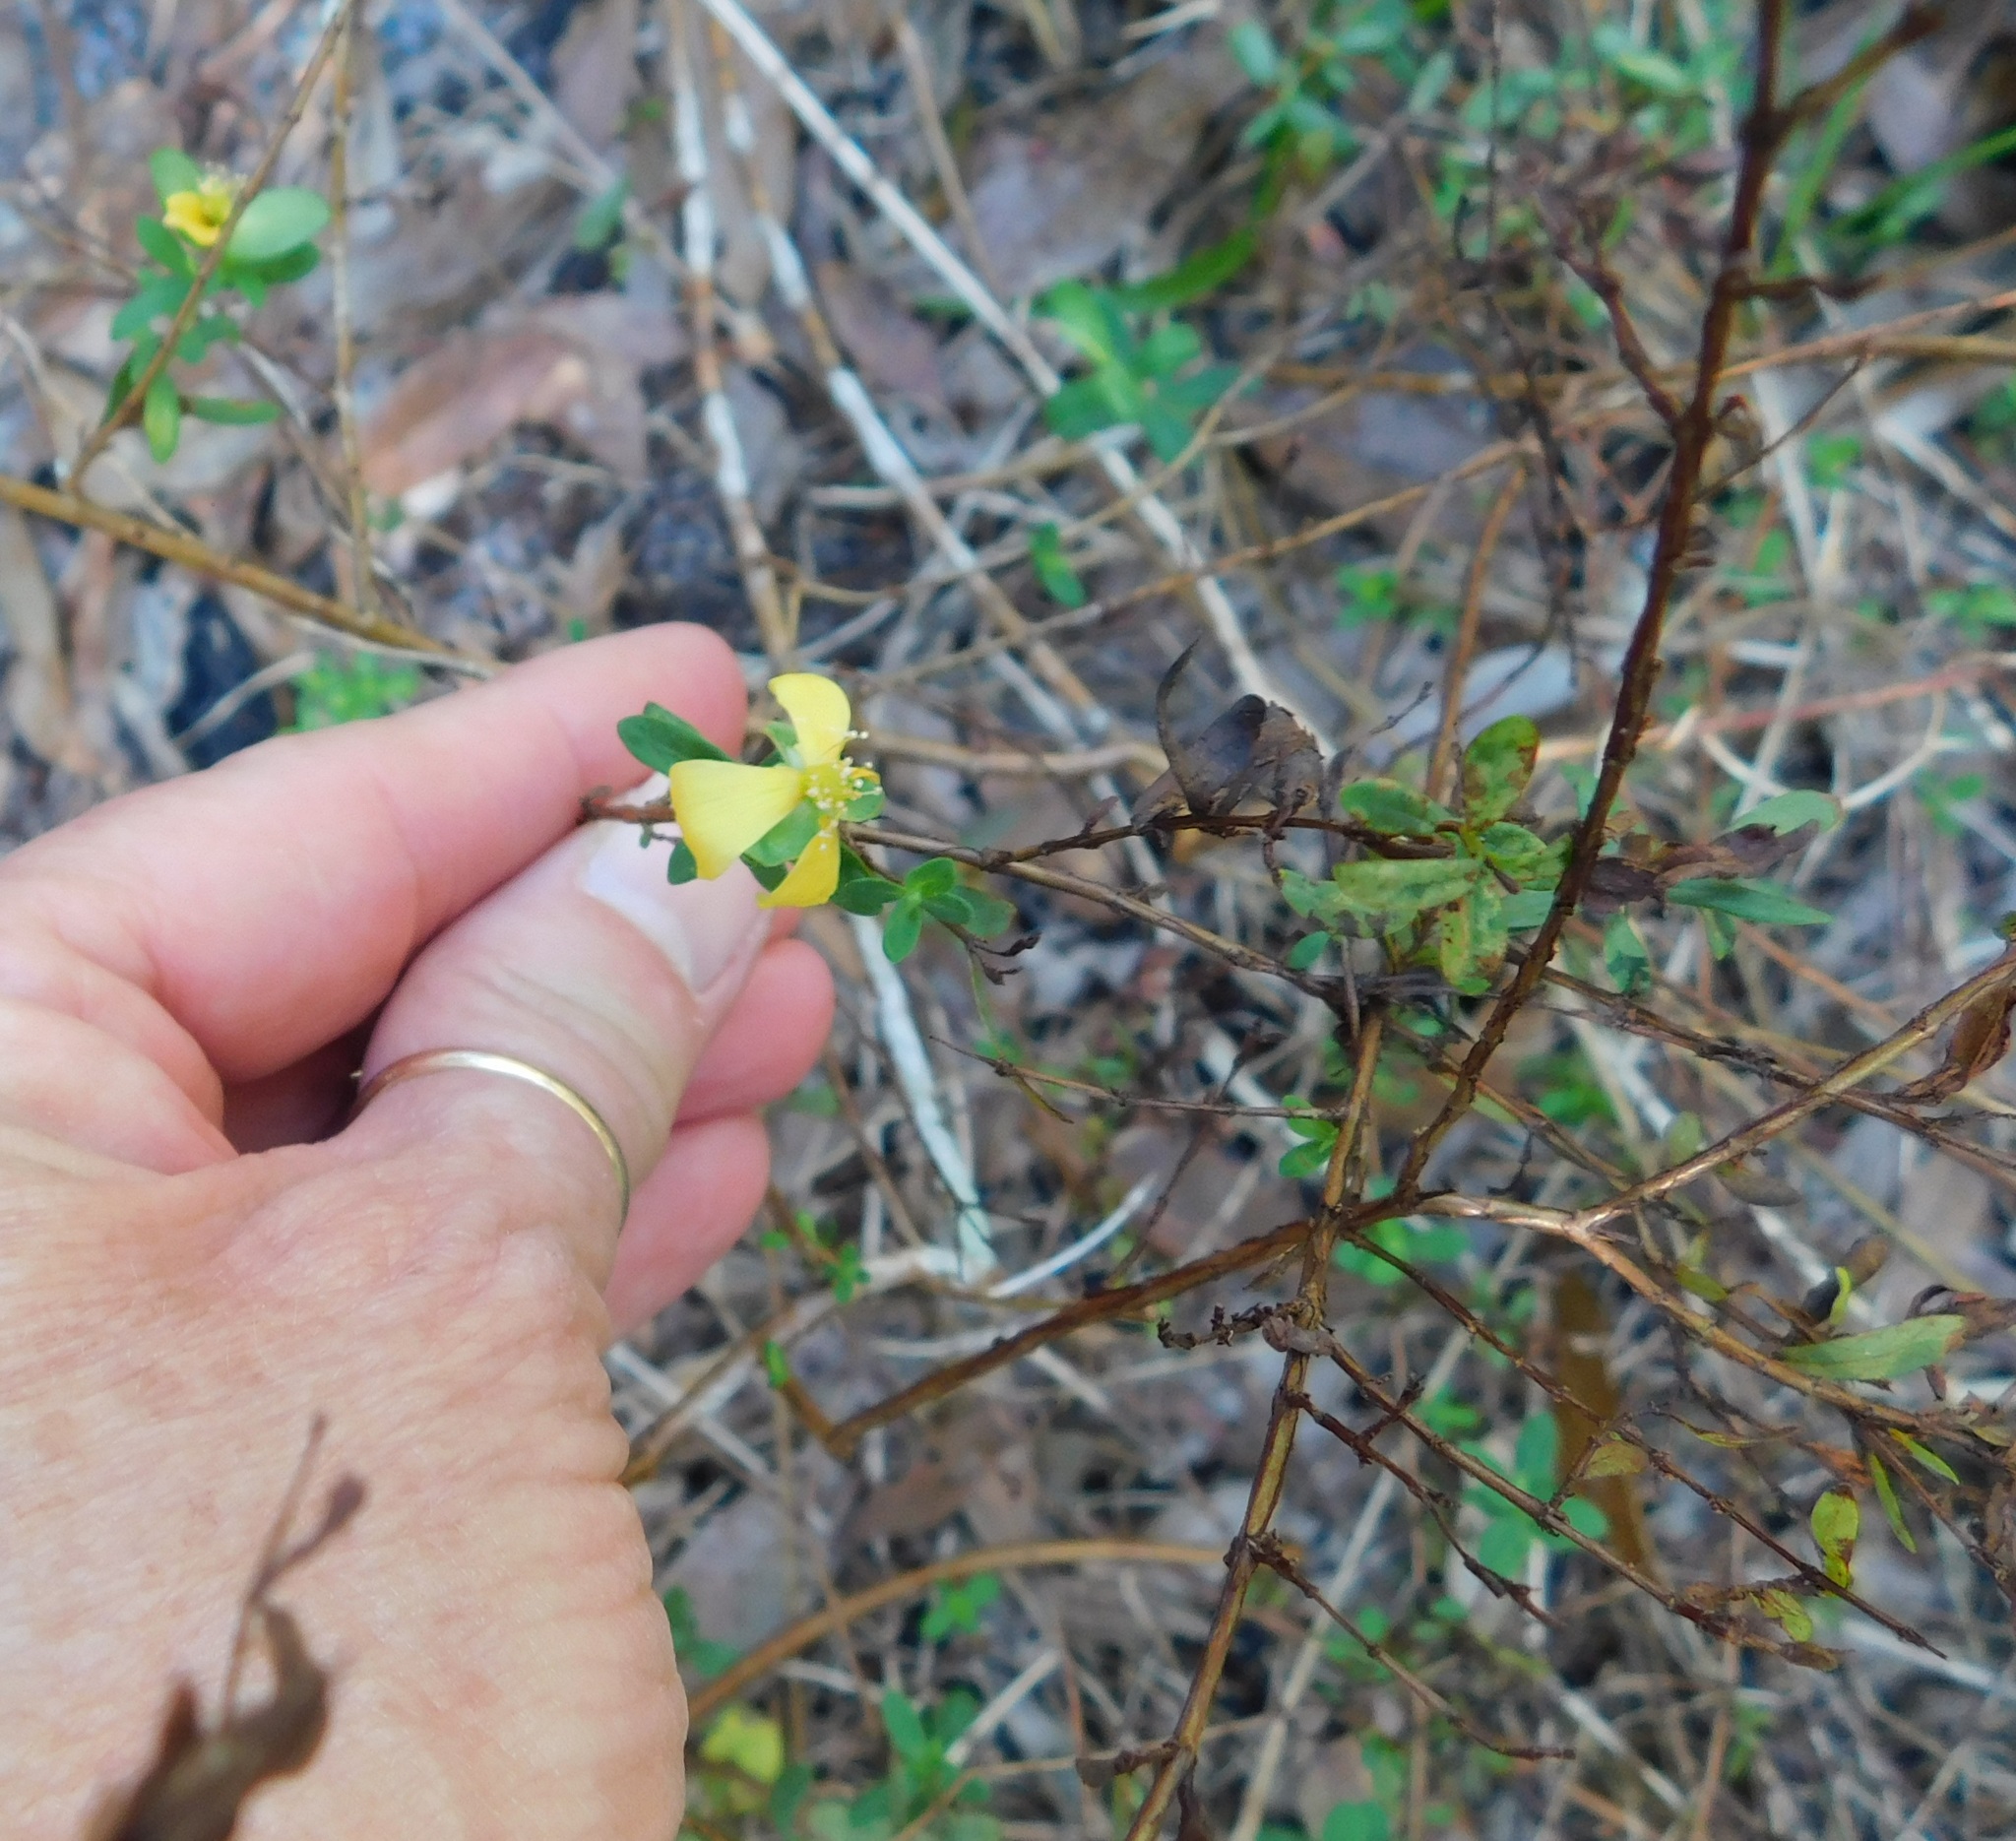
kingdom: Plantae
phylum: Tracheophyta
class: Magnoliopsida
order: Malpighiales
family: Hypericaceae
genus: Hypericum
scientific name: Hypericum hypericoides
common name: St. andrew's cross
